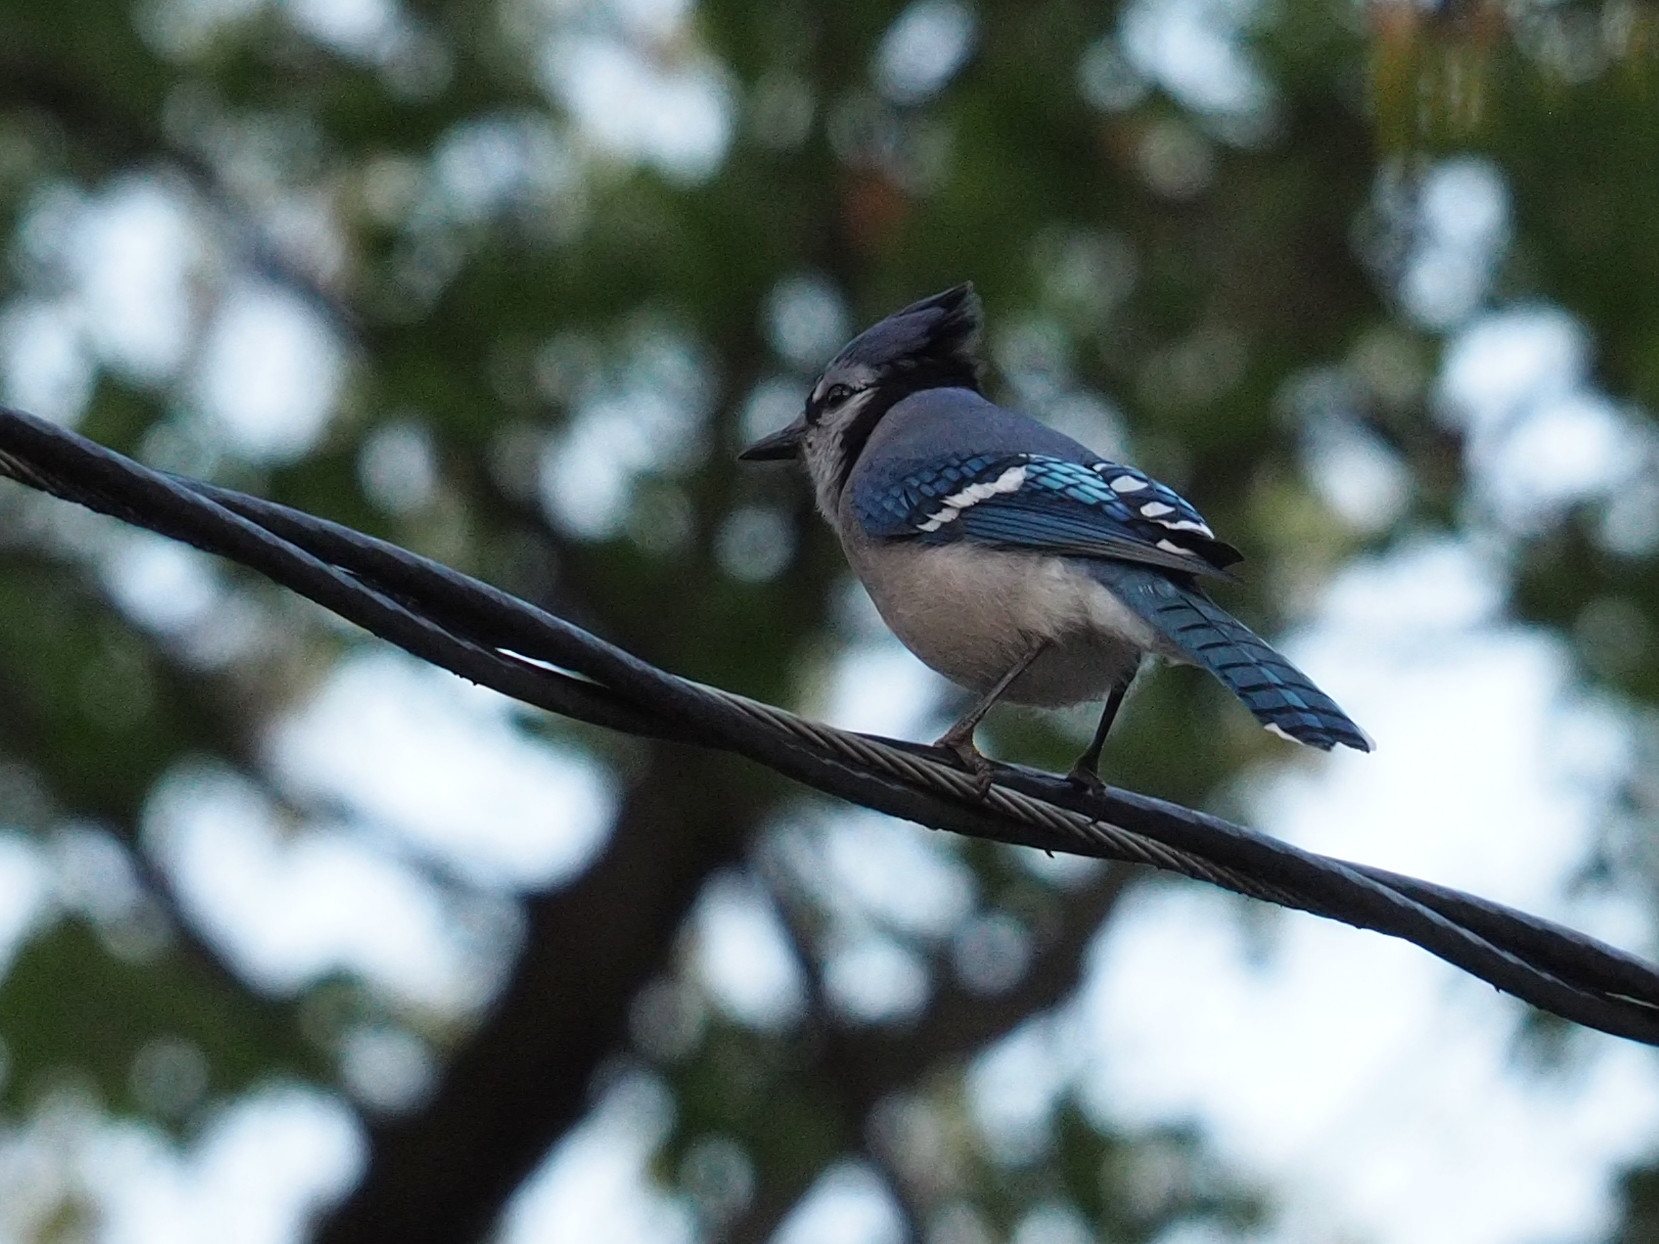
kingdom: Animalia
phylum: Chordata
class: Aves
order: Passeriformes
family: Corvidae
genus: Cyanocitta
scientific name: Cyanocitta cristata
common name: Blue jay
